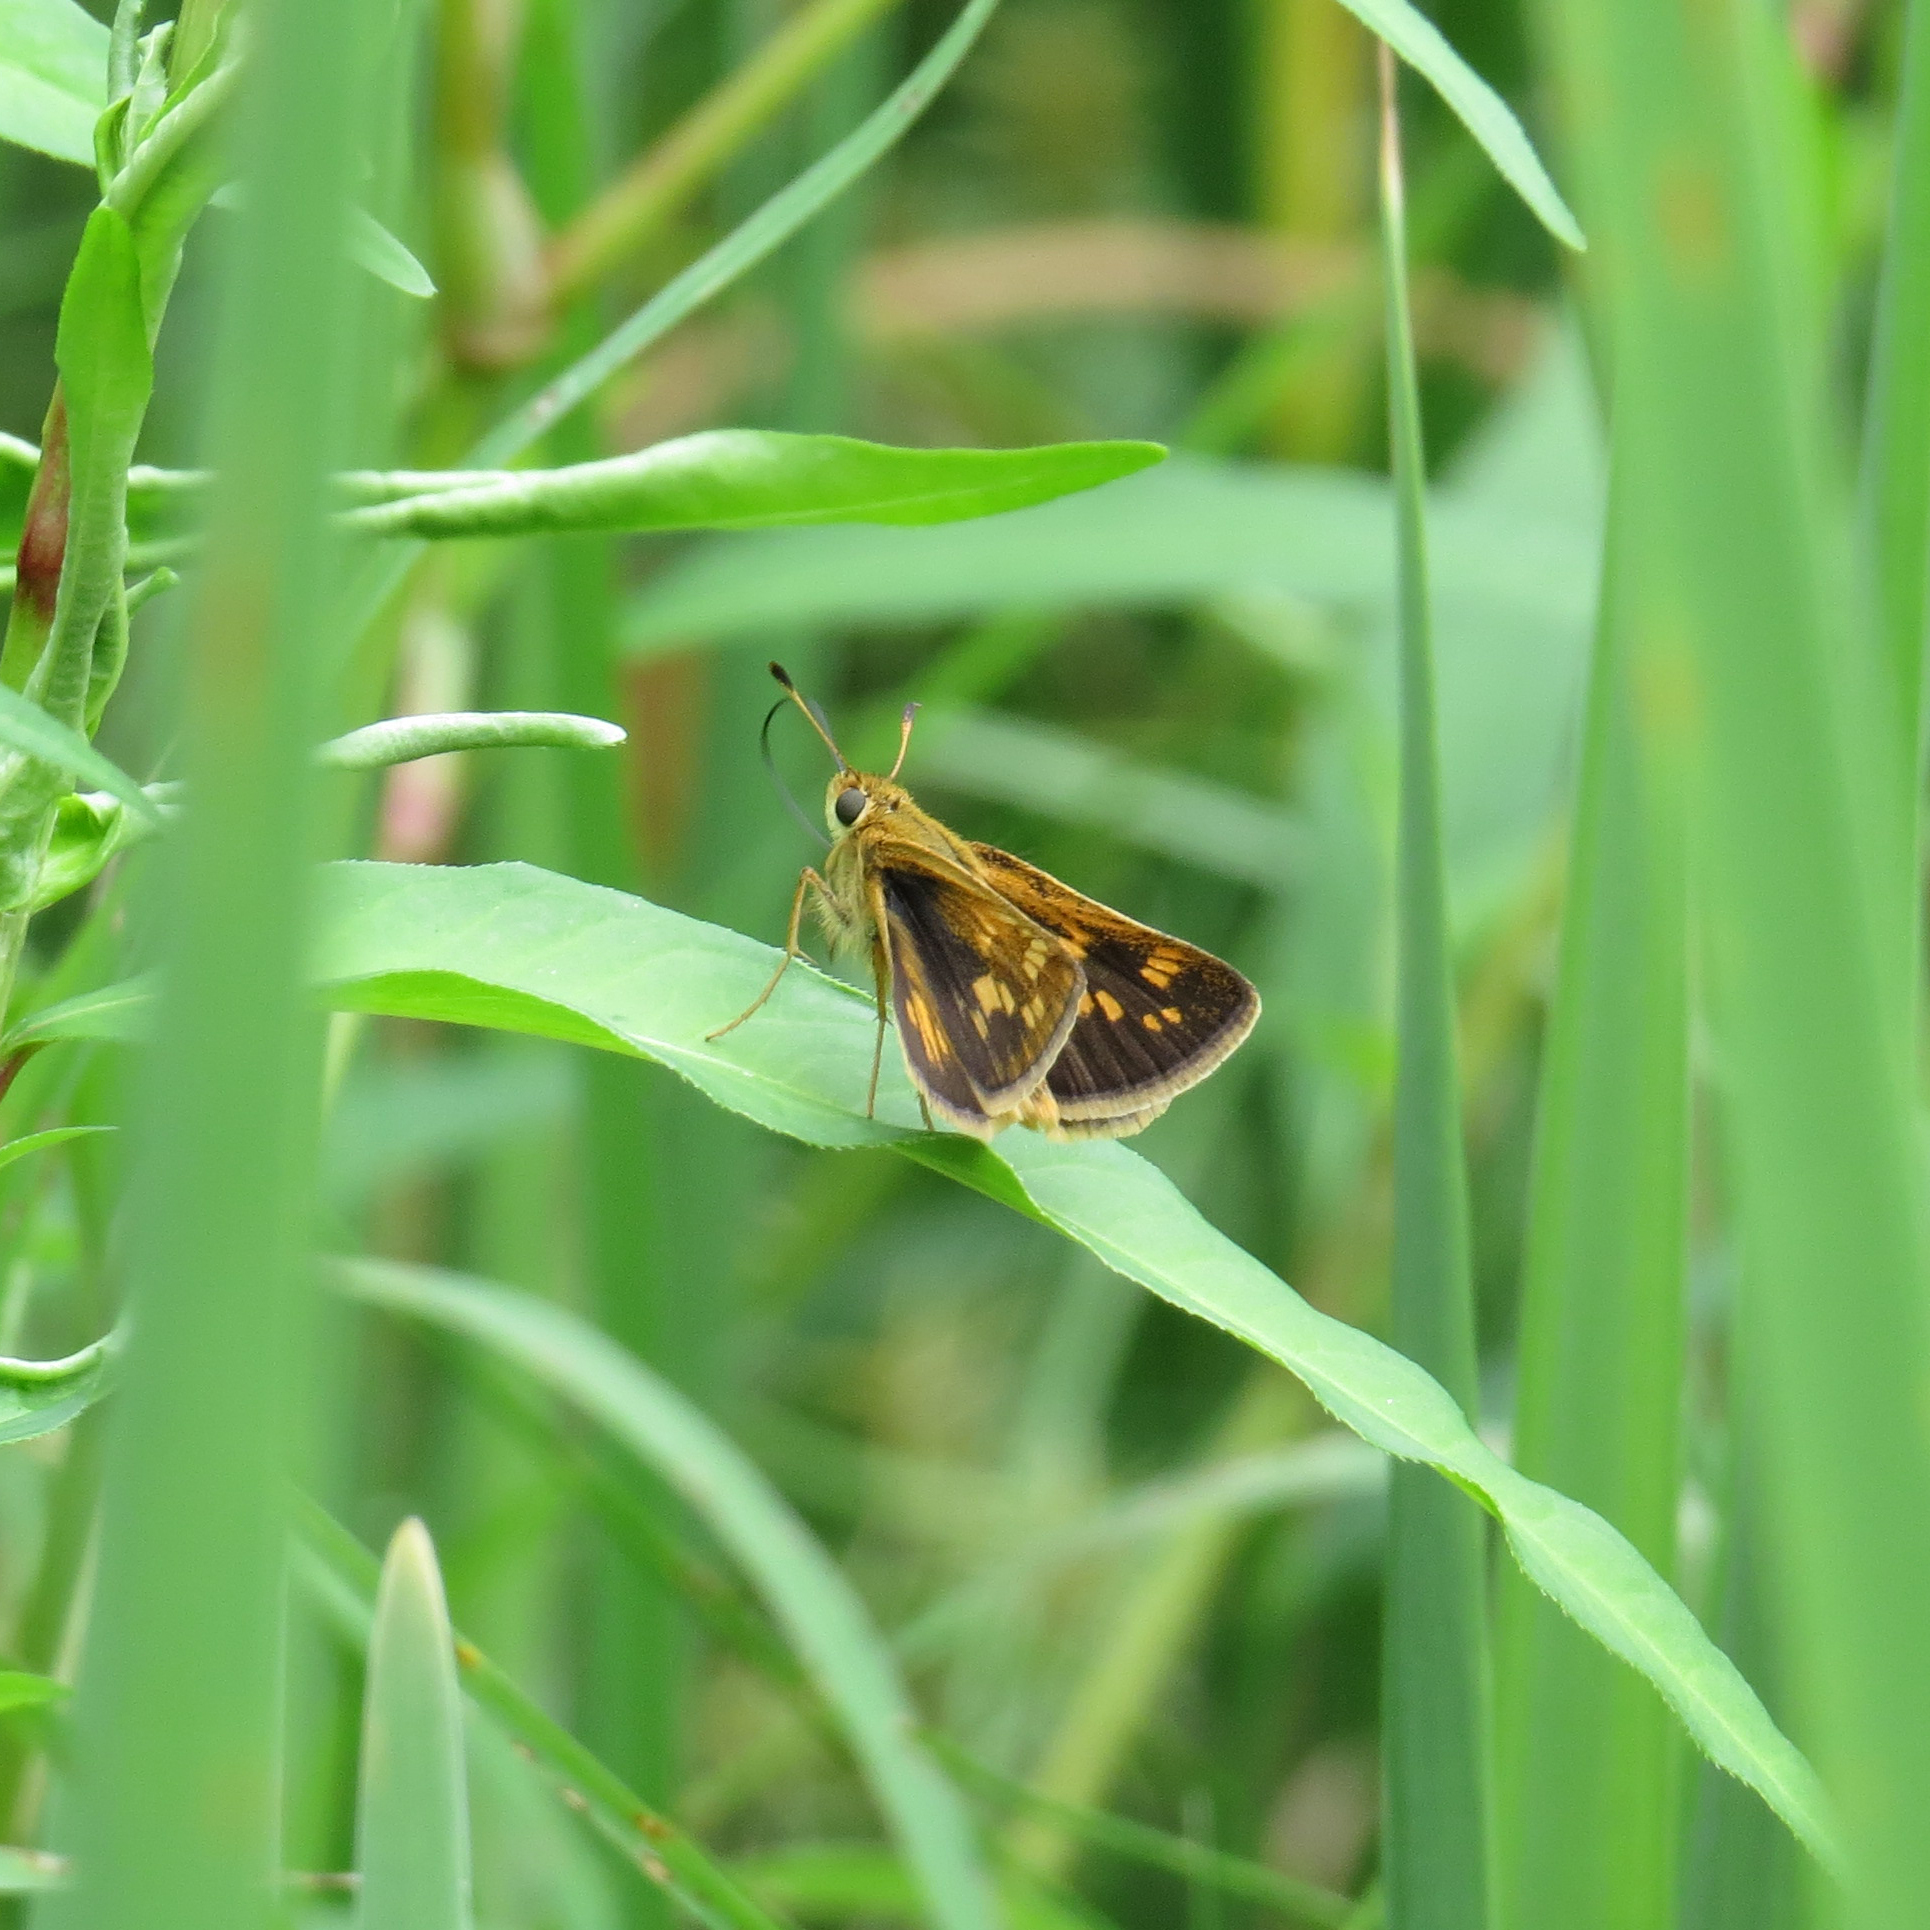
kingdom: Animalia
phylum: Arthropoda
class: Insecta
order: Lepidoptera
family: Hesperiidae
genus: Polites
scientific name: Polites coras
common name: Peck's skipper
